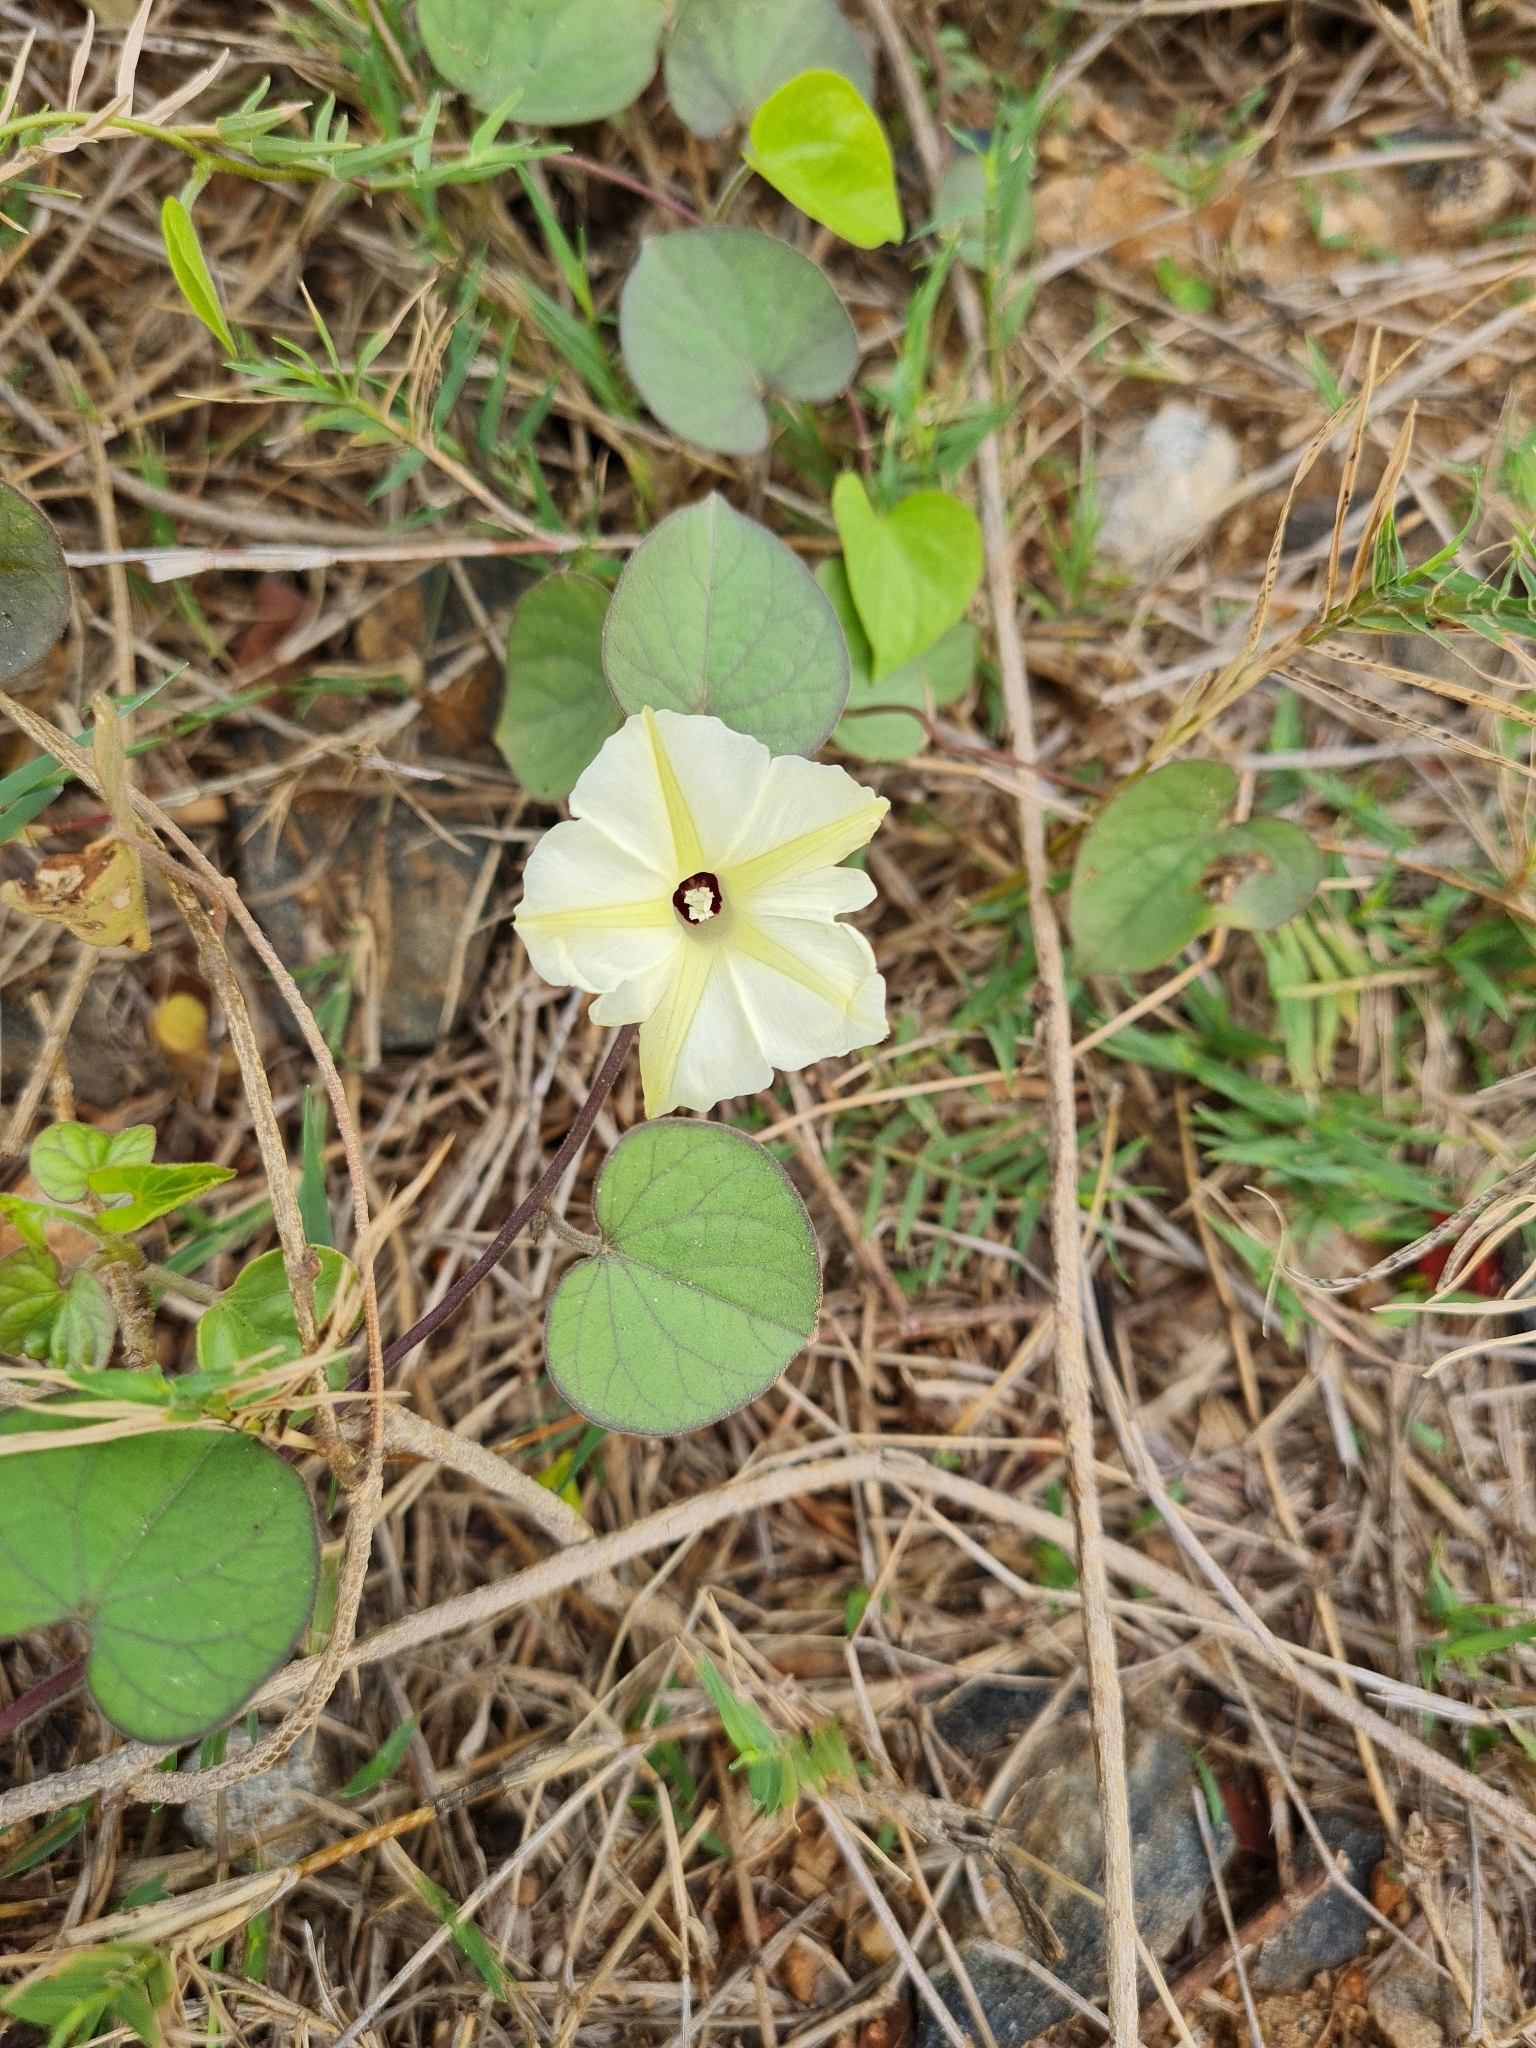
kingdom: Plantae
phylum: Tracheophyta
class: Magnoliopsida
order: Solanales
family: Convolvulaceae
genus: Ipomoea
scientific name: Ipomoea obscura
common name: Obscure morning-glory
